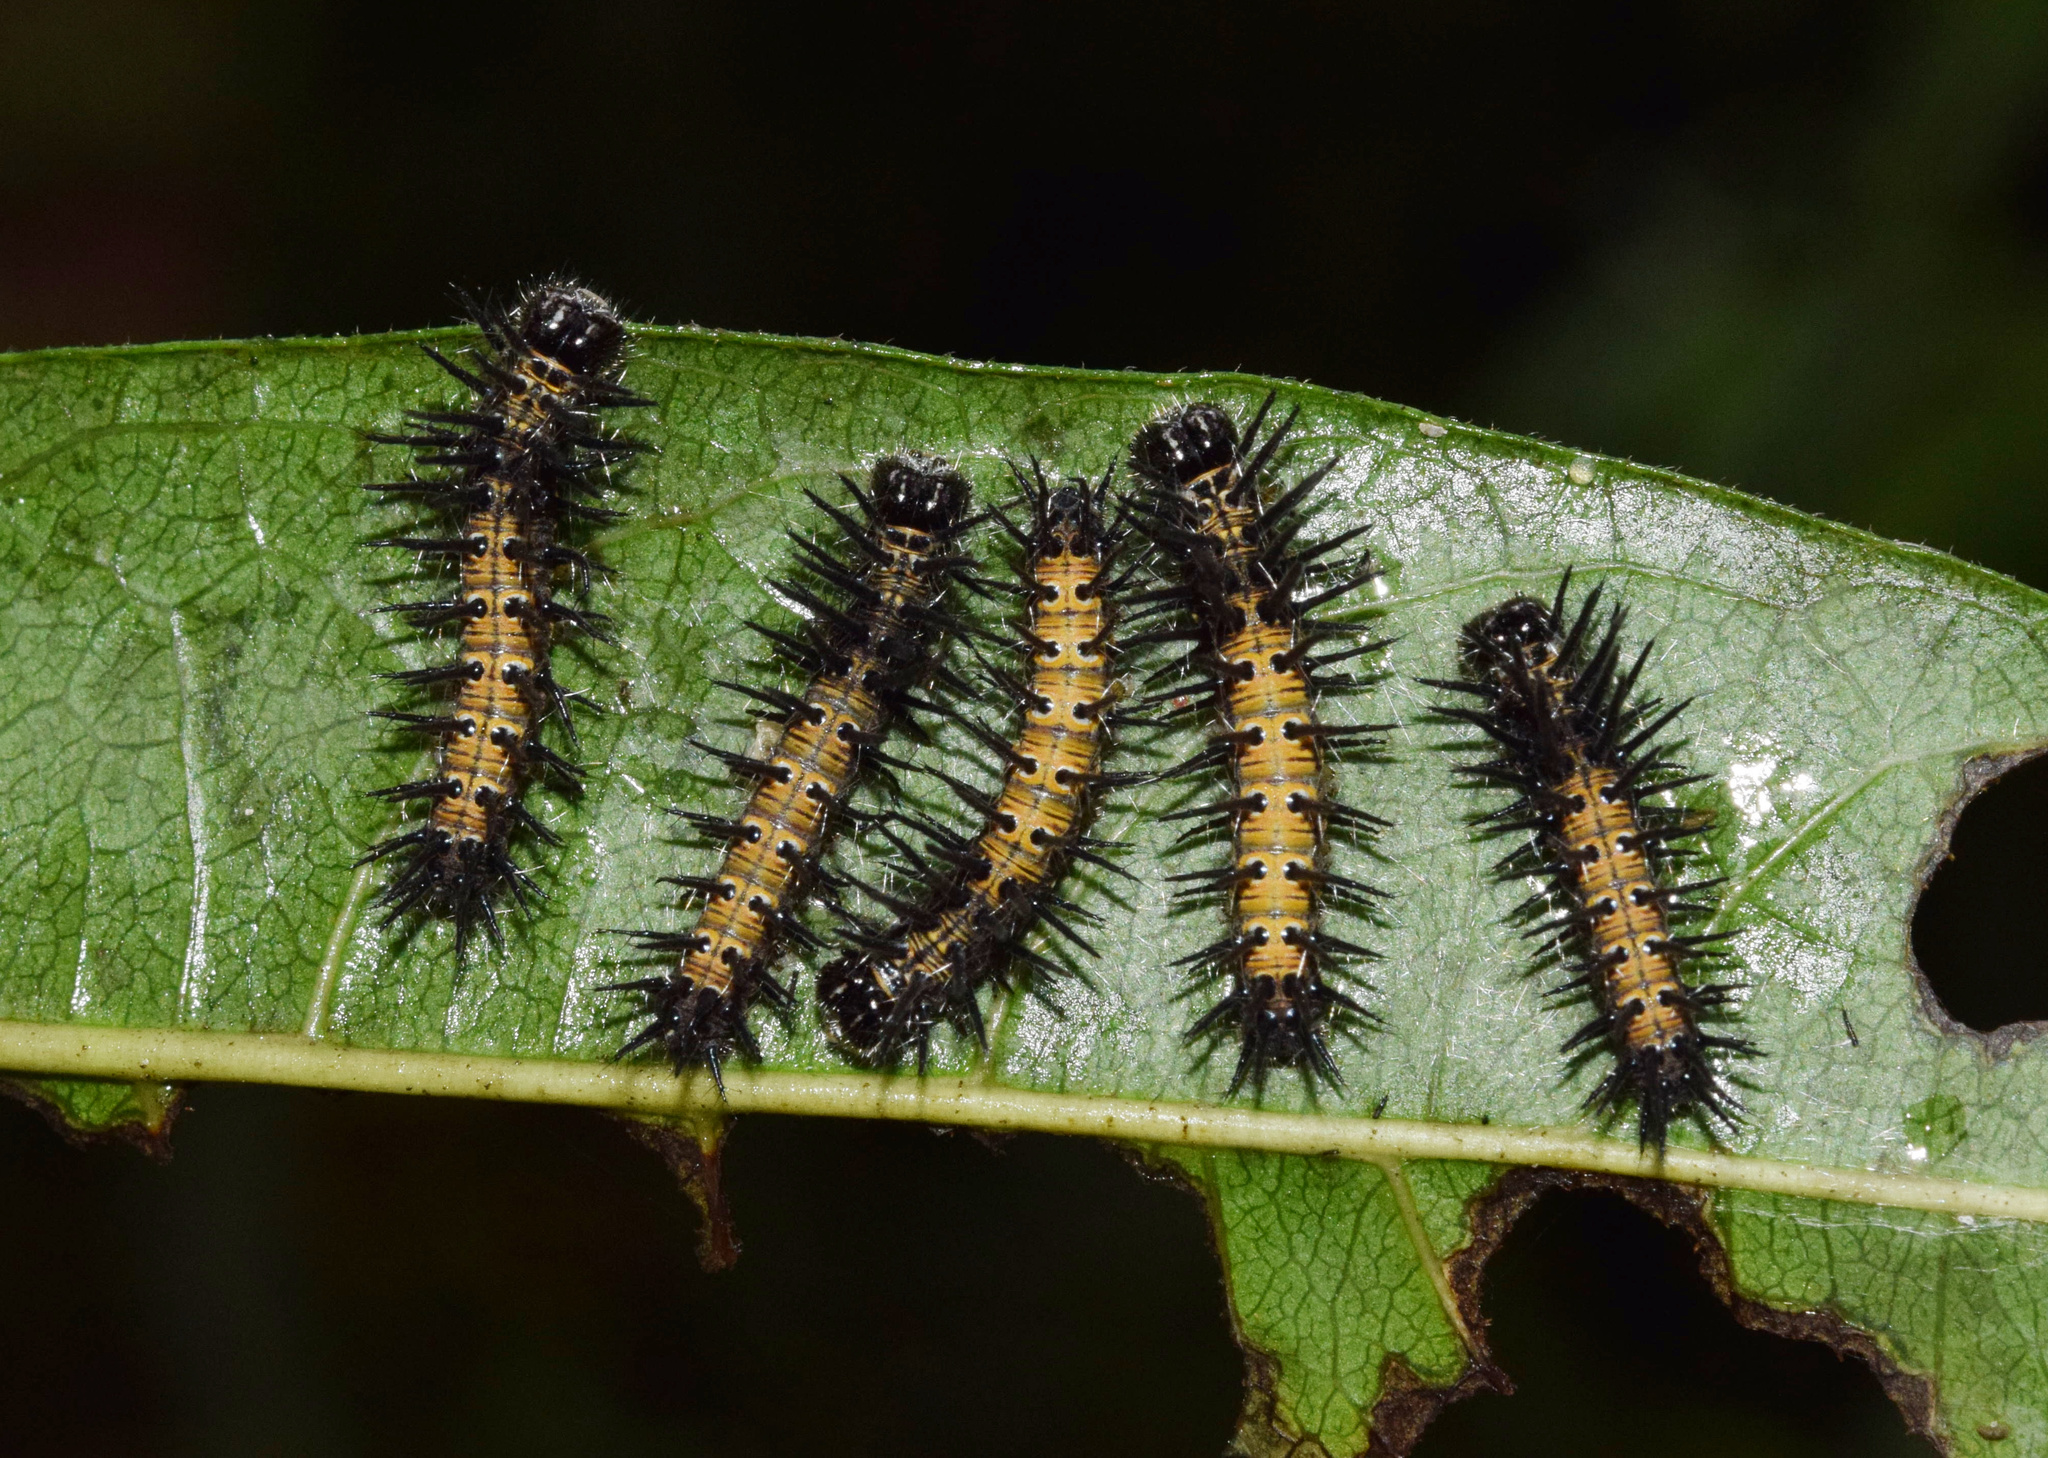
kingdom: Plantae
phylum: Tracheophyta
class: Magnoliopsida
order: Malpighiales
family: Achariaceae
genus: Xylotheca
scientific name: Xylotheca kraussiana
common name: African dog rose
